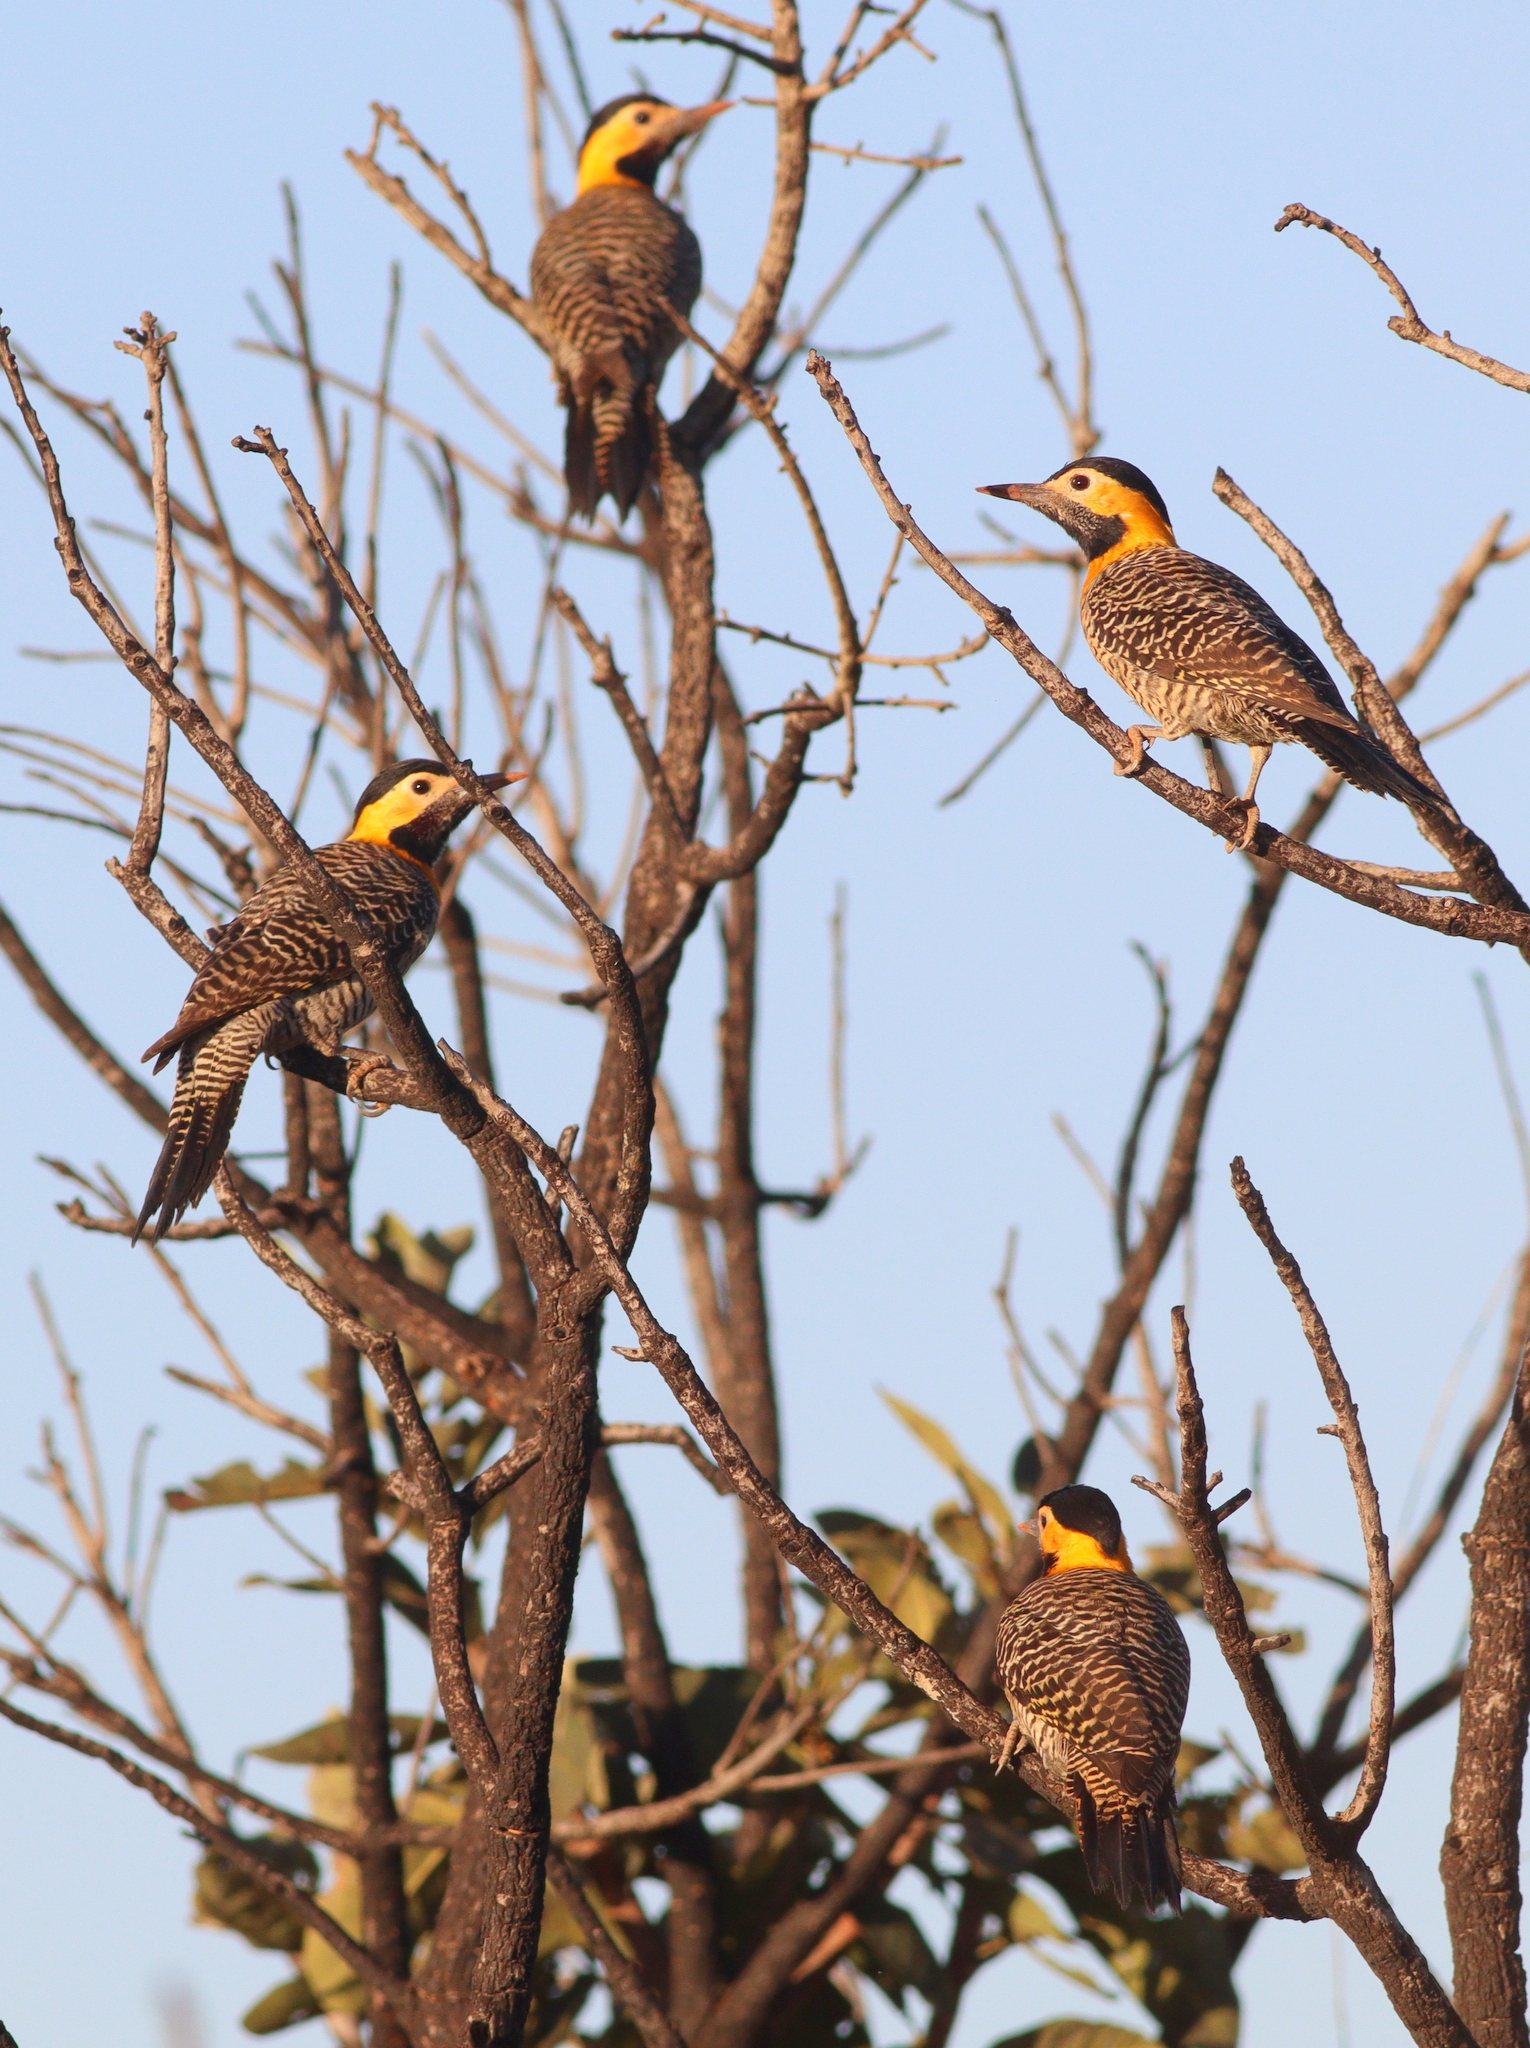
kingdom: Animalia
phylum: Chordata
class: Aves
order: Piciformes
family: Picidae
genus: Colaptes
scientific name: Colaptes campestris
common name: Campo flicker
